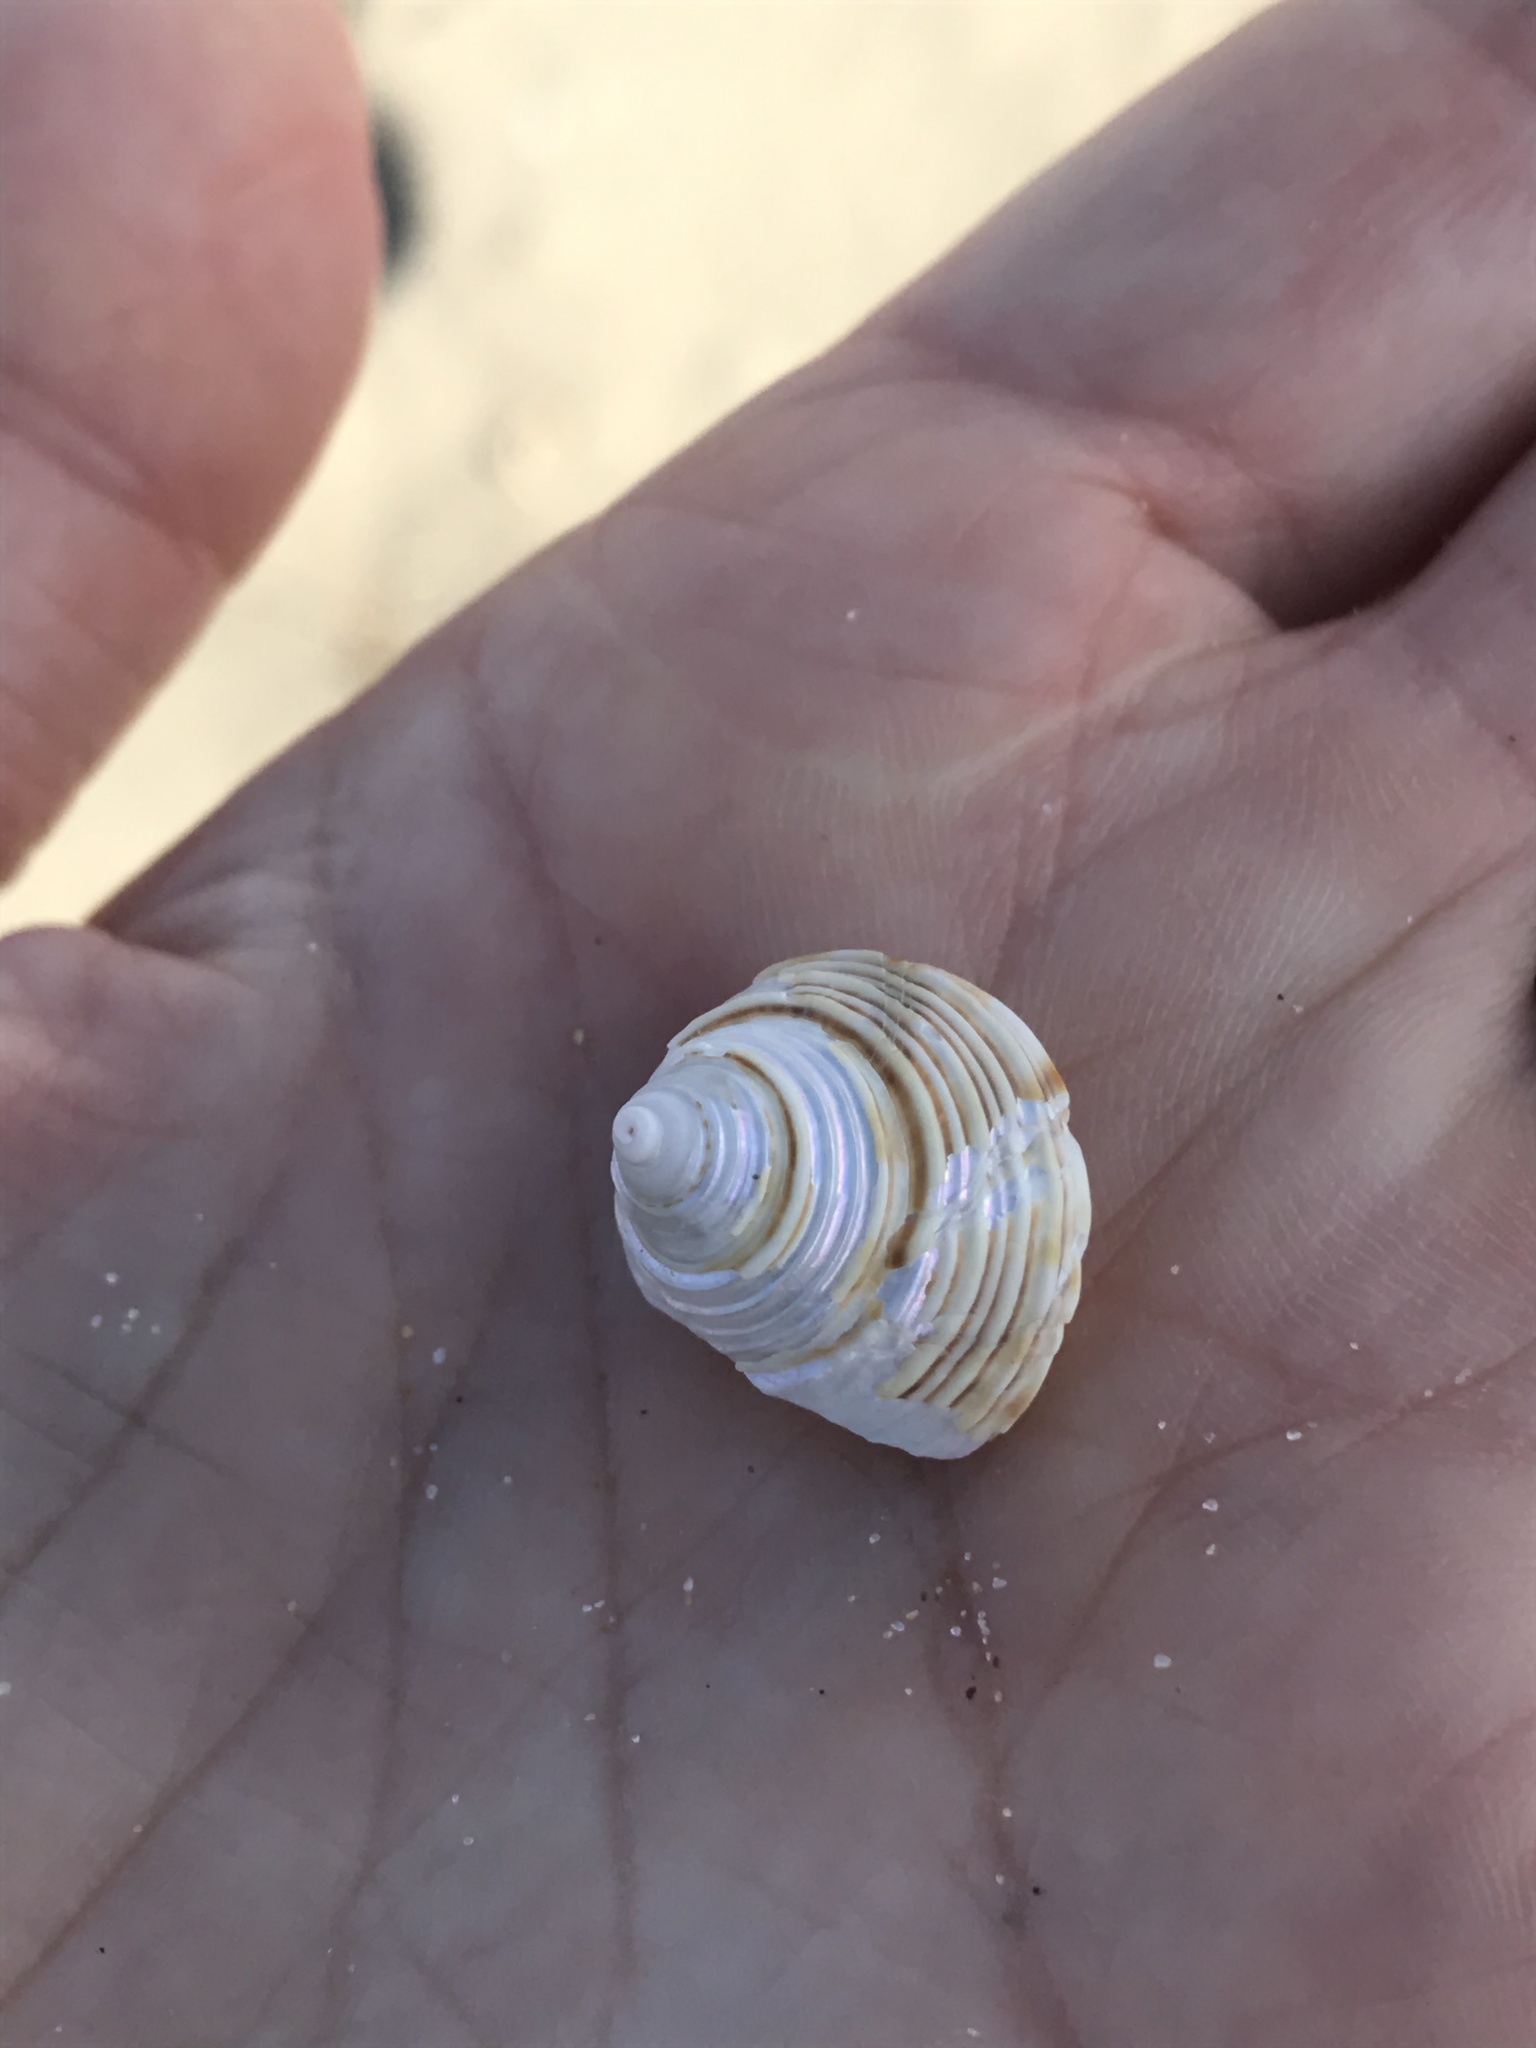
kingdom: Animalia
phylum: Mollusca
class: Gastropoda
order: Trochida
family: Calliostomatidae
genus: Calliostoma
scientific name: Calliostoma canaliculatum
